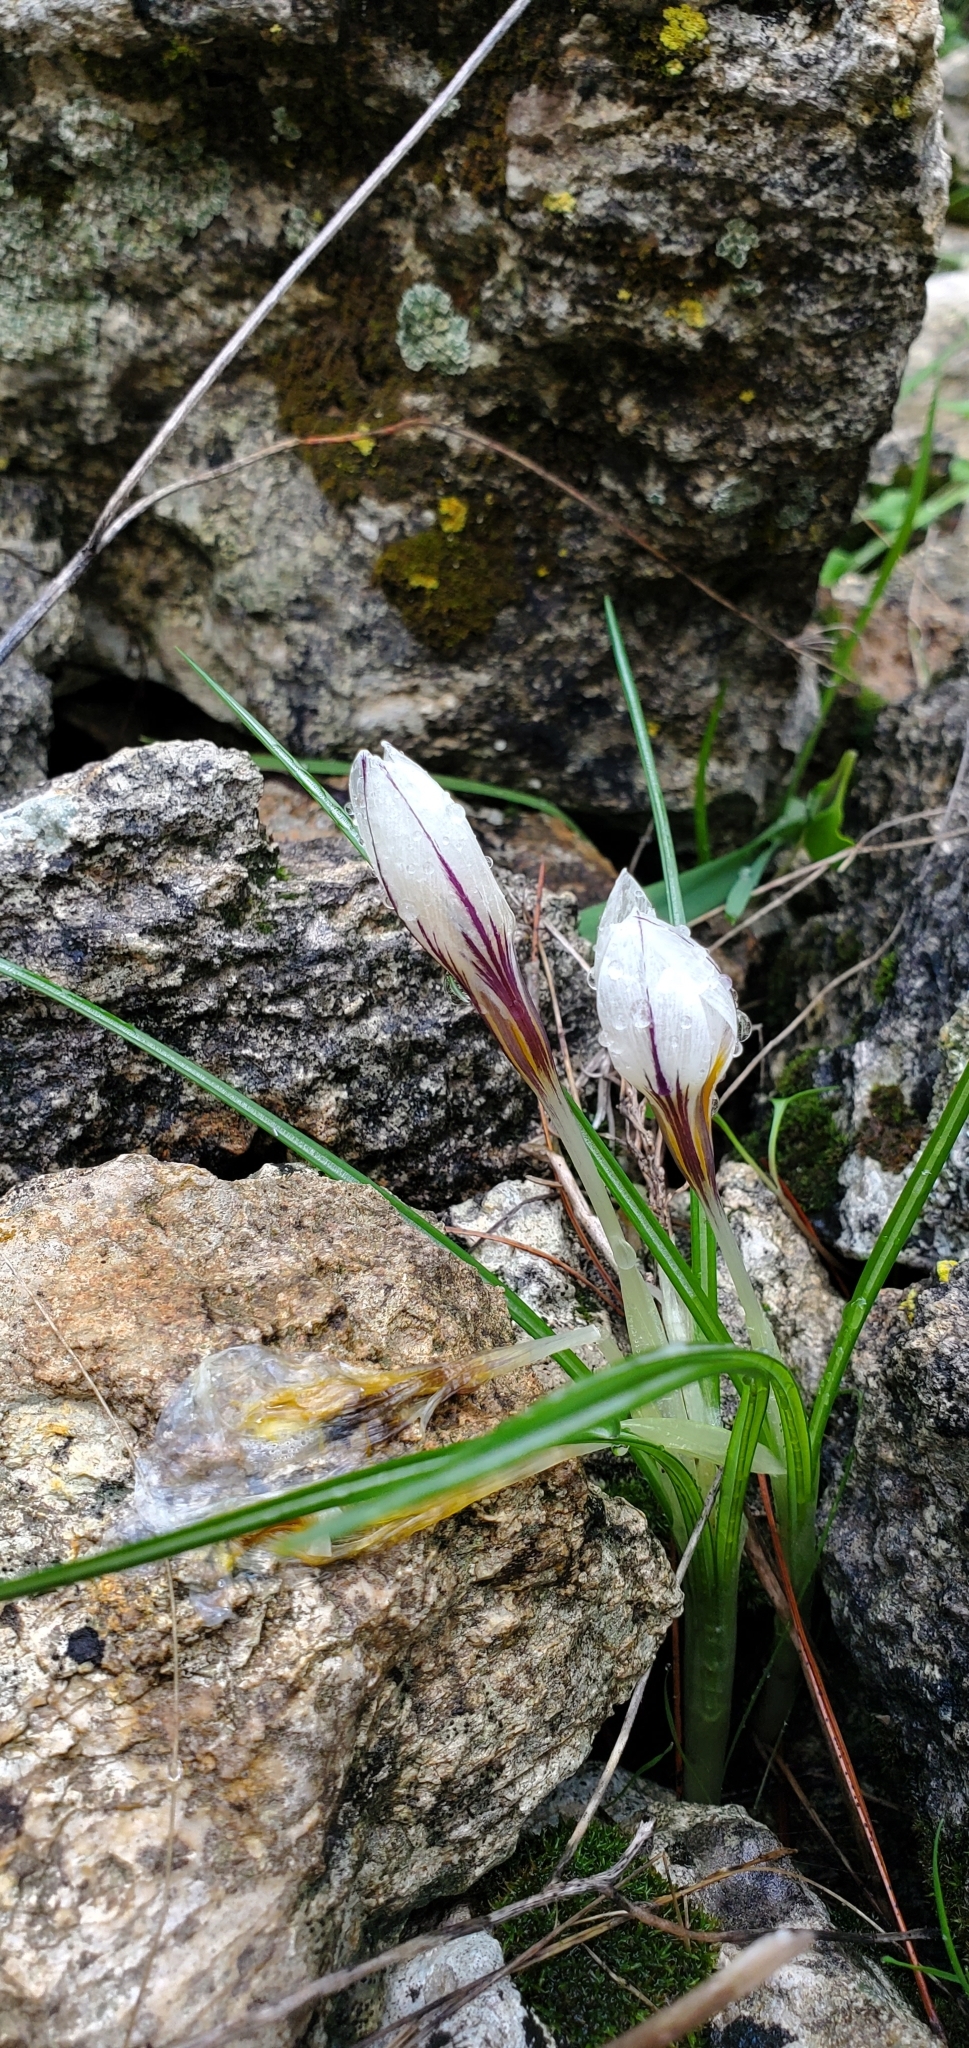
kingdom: Plantae
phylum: Tracheophyta
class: Liliopsida
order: Asparagales
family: Iridaceae
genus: Crocus
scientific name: Crocus hyemalis
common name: Winter crocus
